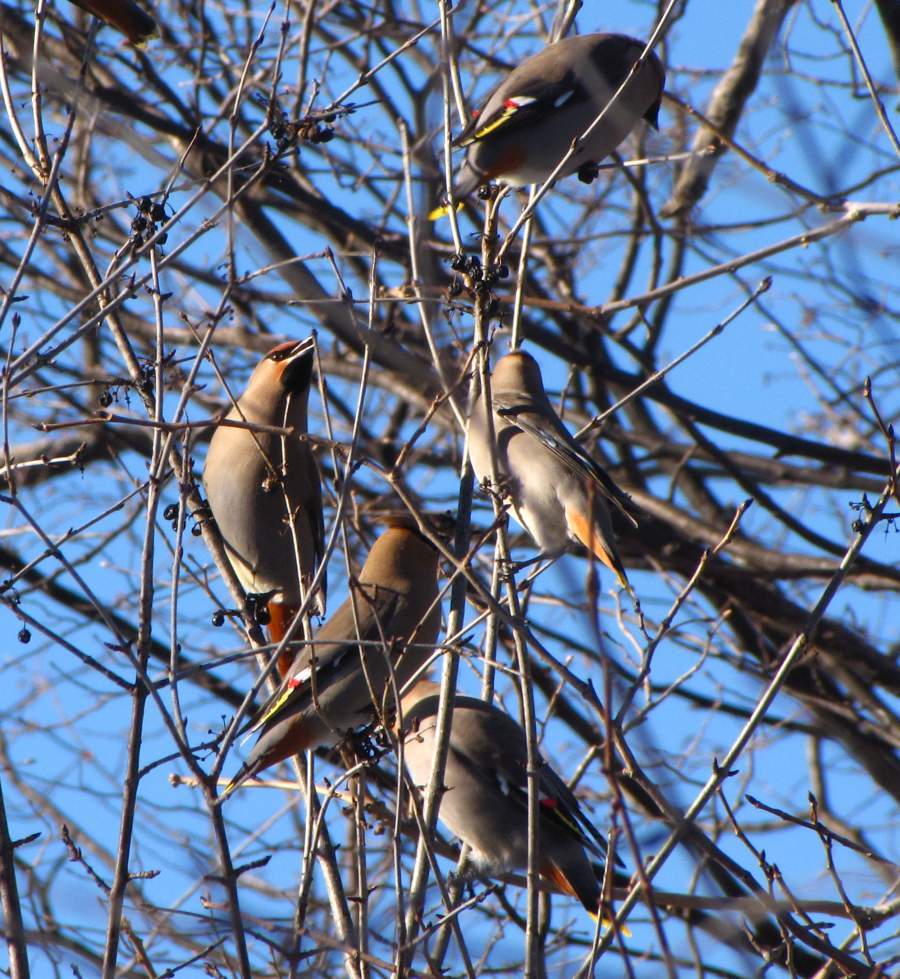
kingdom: Animalia
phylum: Chordata
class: Aves
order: Passeriformes
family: Bombycillidae
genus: Bombycilla
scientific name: Bombycilla garrulus
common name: Bohemian waxwing
